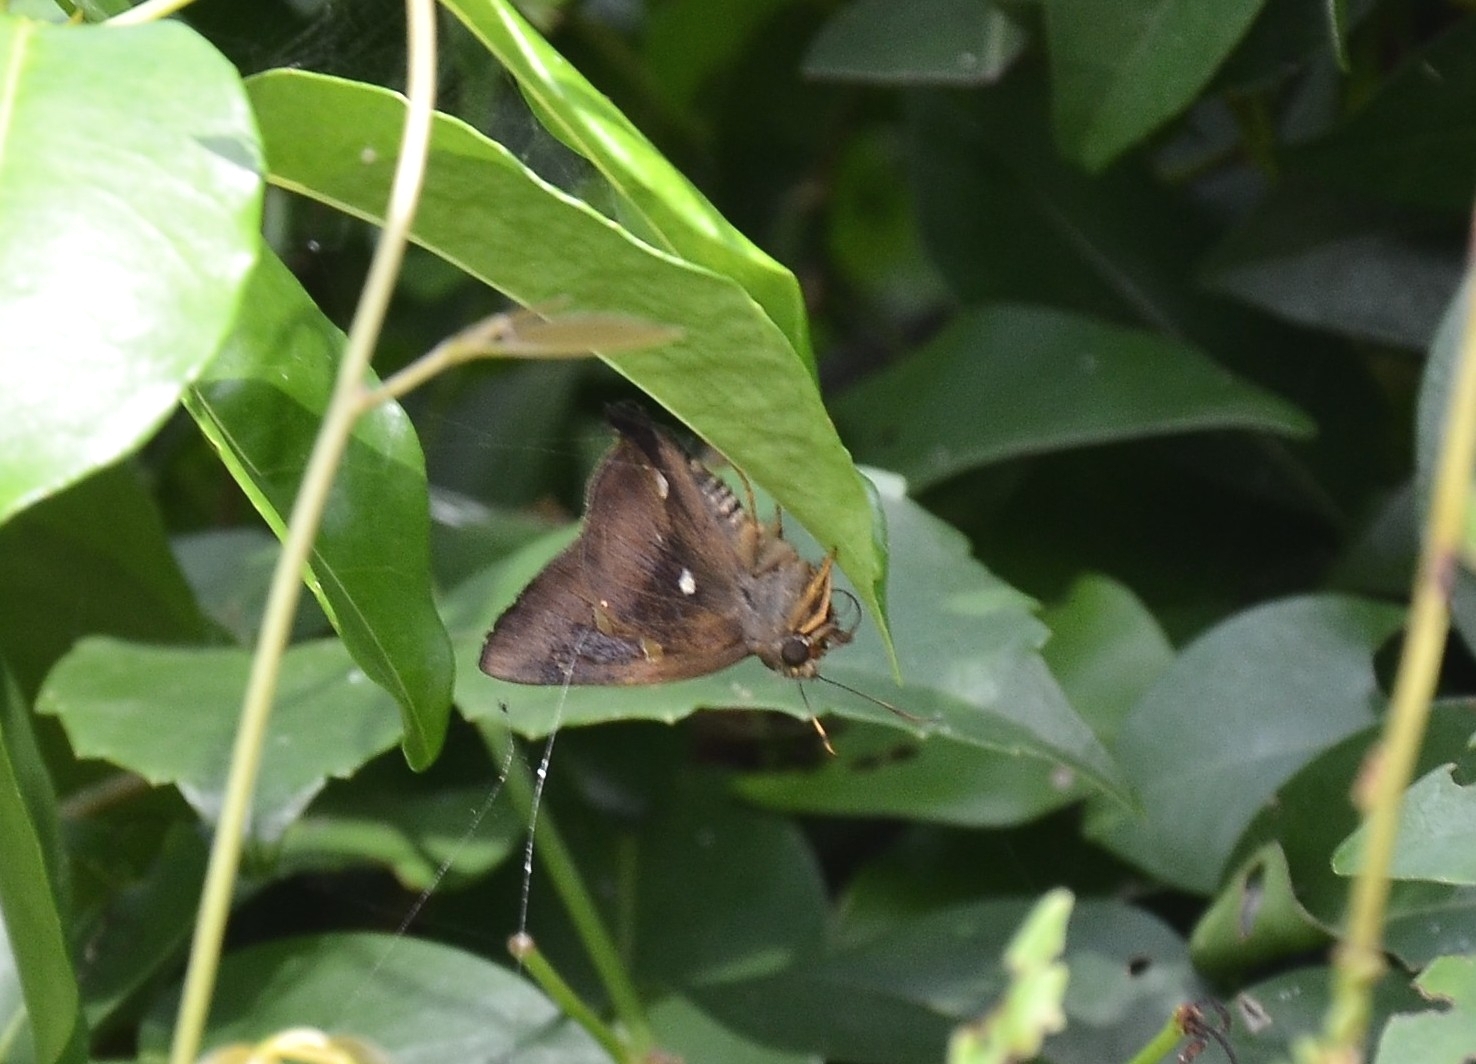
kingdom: Animalia
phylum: Arthropoda
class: Insecta
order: Lepidoptera
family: Hesperiidae
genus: Hasora
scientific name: Hasora badra
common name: Common awl
